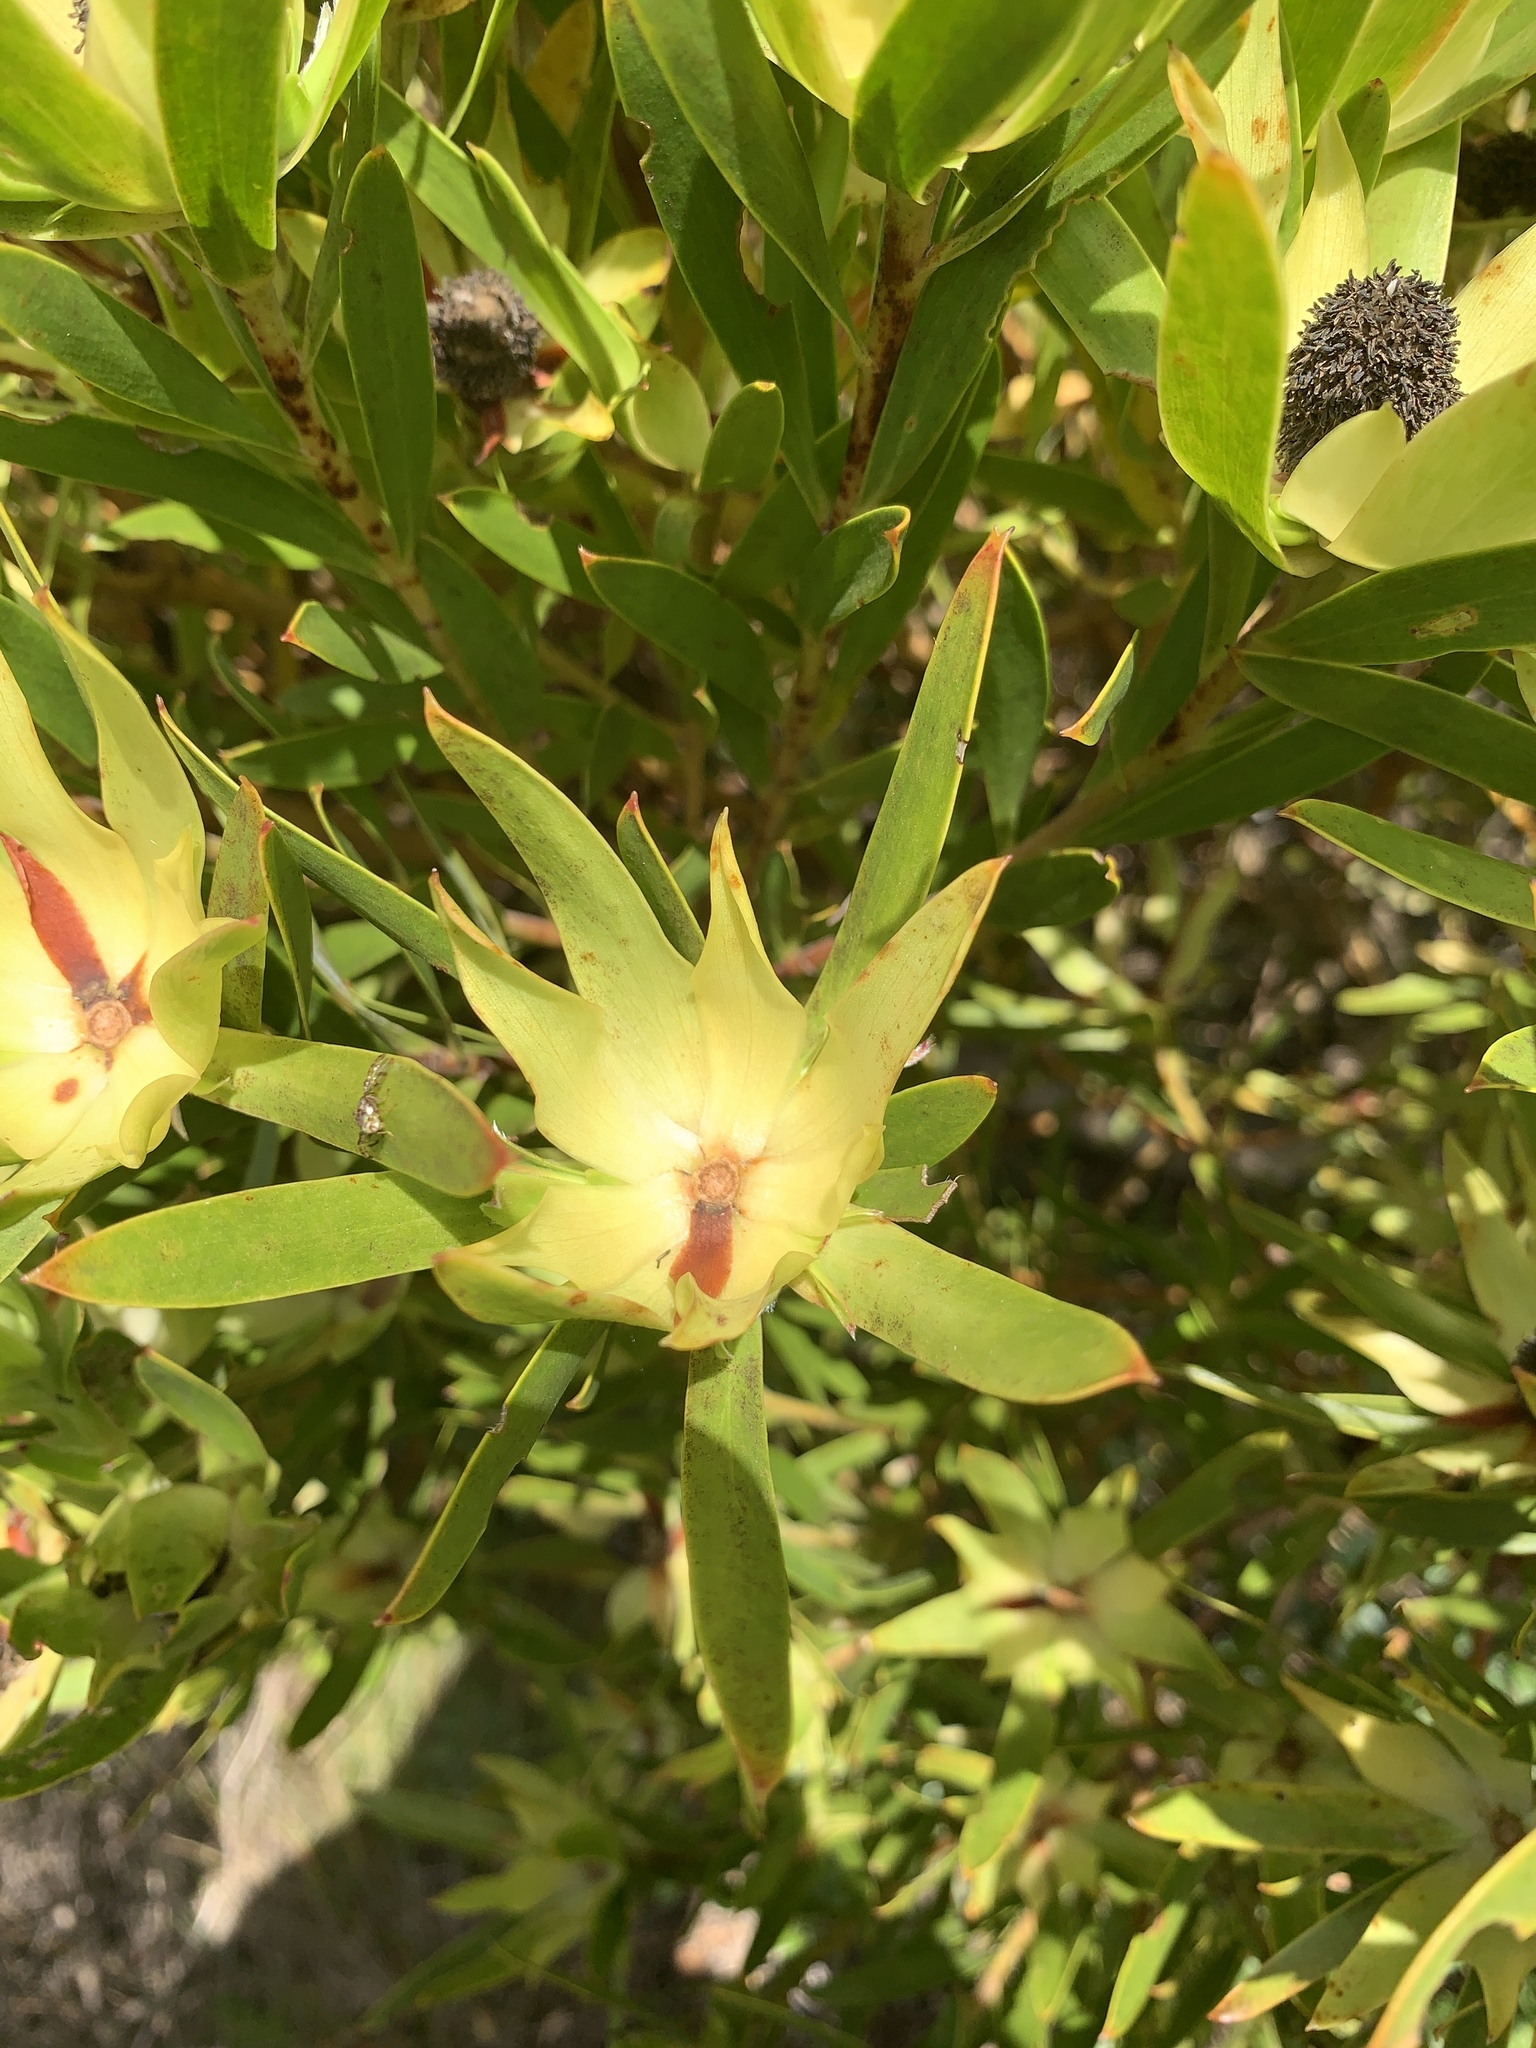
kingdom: Plantae
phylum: Tracheophyta
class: Magnoliopsida
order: Proteales
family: Proteaceae
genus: Leucadendron
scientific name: Leucadendron laureolum
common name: Golden sunshinebush
